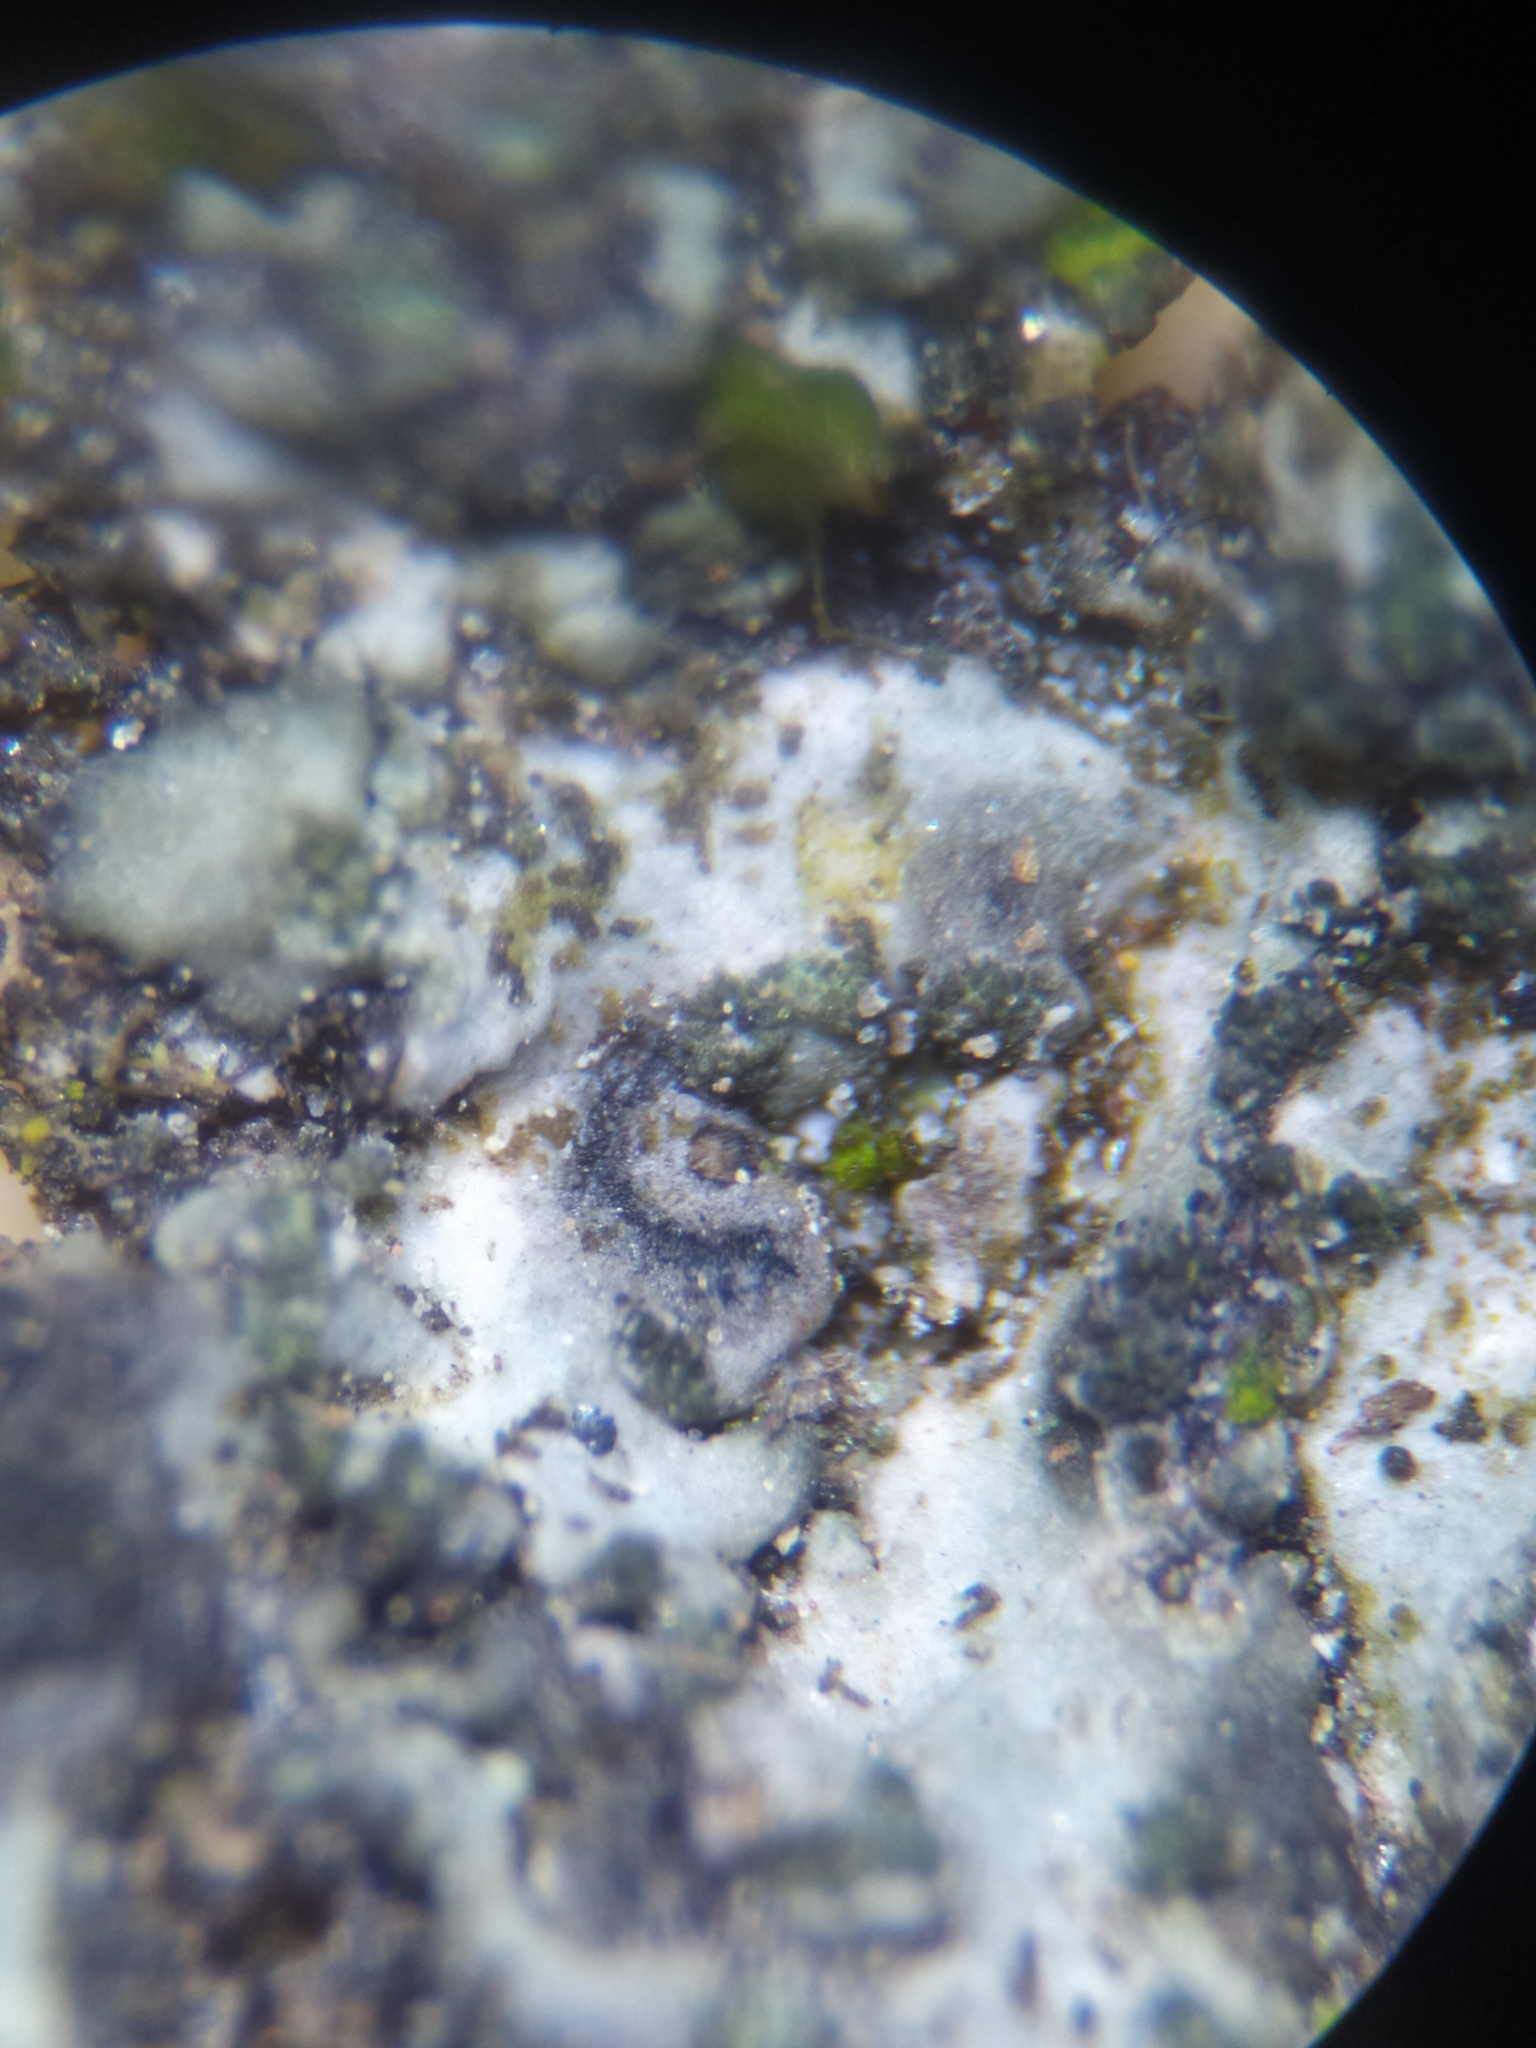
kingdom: Fungi
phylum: Ascomycota
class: Arthoniomycetes
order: Arthoniales
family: Arthoniaceae
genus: Bryostigma
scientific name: Bryostigma phaeophysciae
